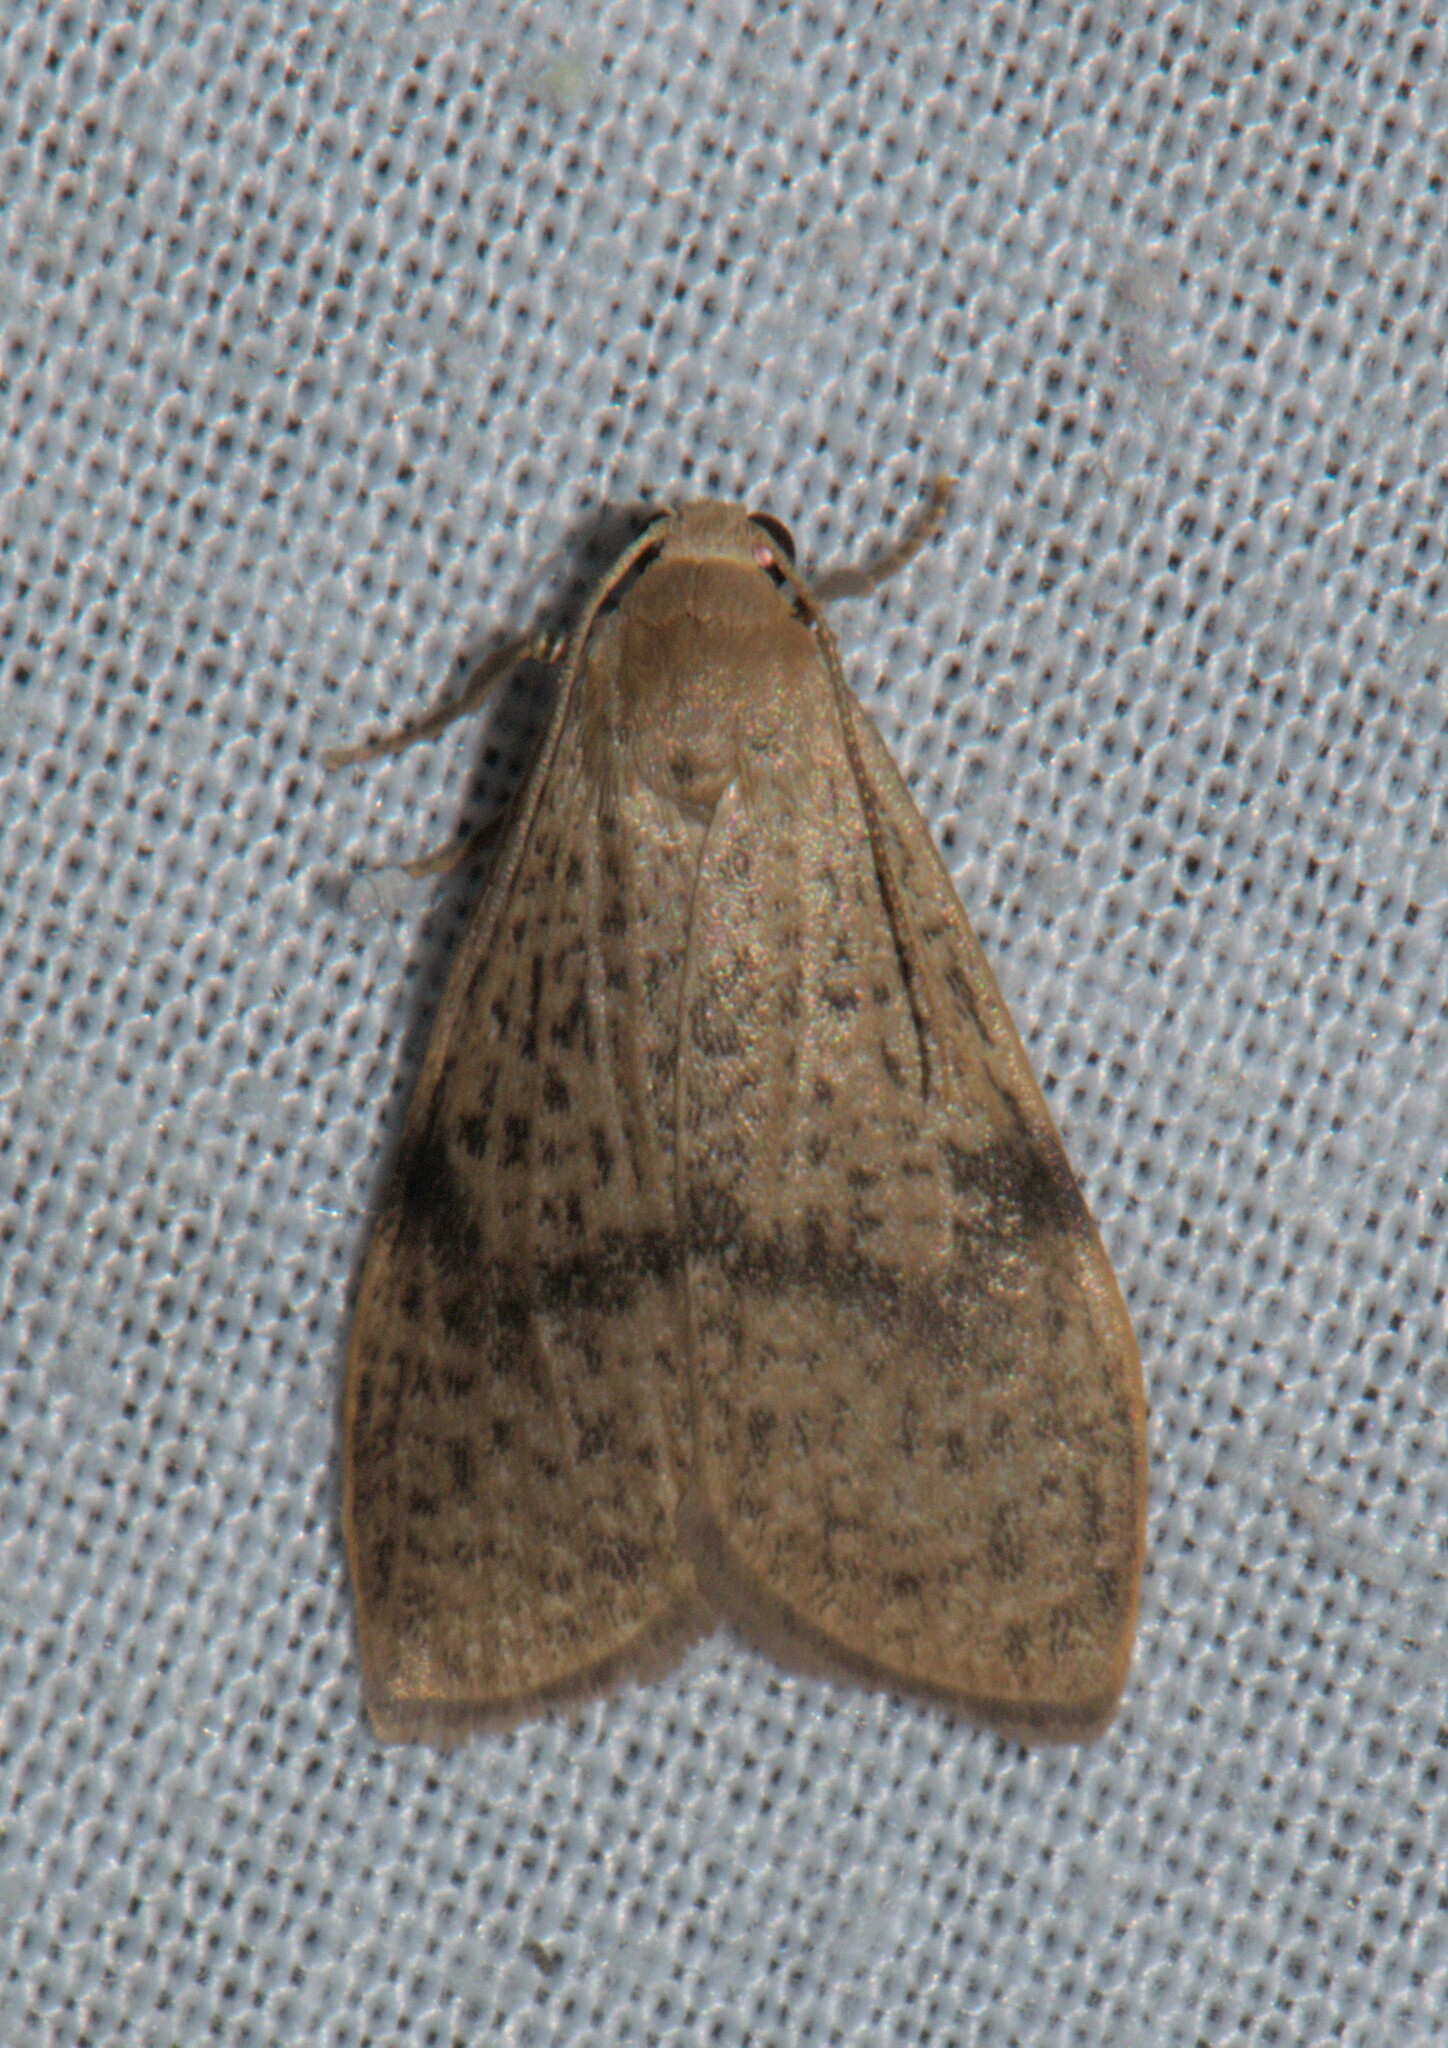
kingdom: Animalia
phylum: Arthropoda
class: Insecta
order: Lepidoptera
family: Erebidae
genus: Dolgoma
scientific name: Dolgoma reticulata
